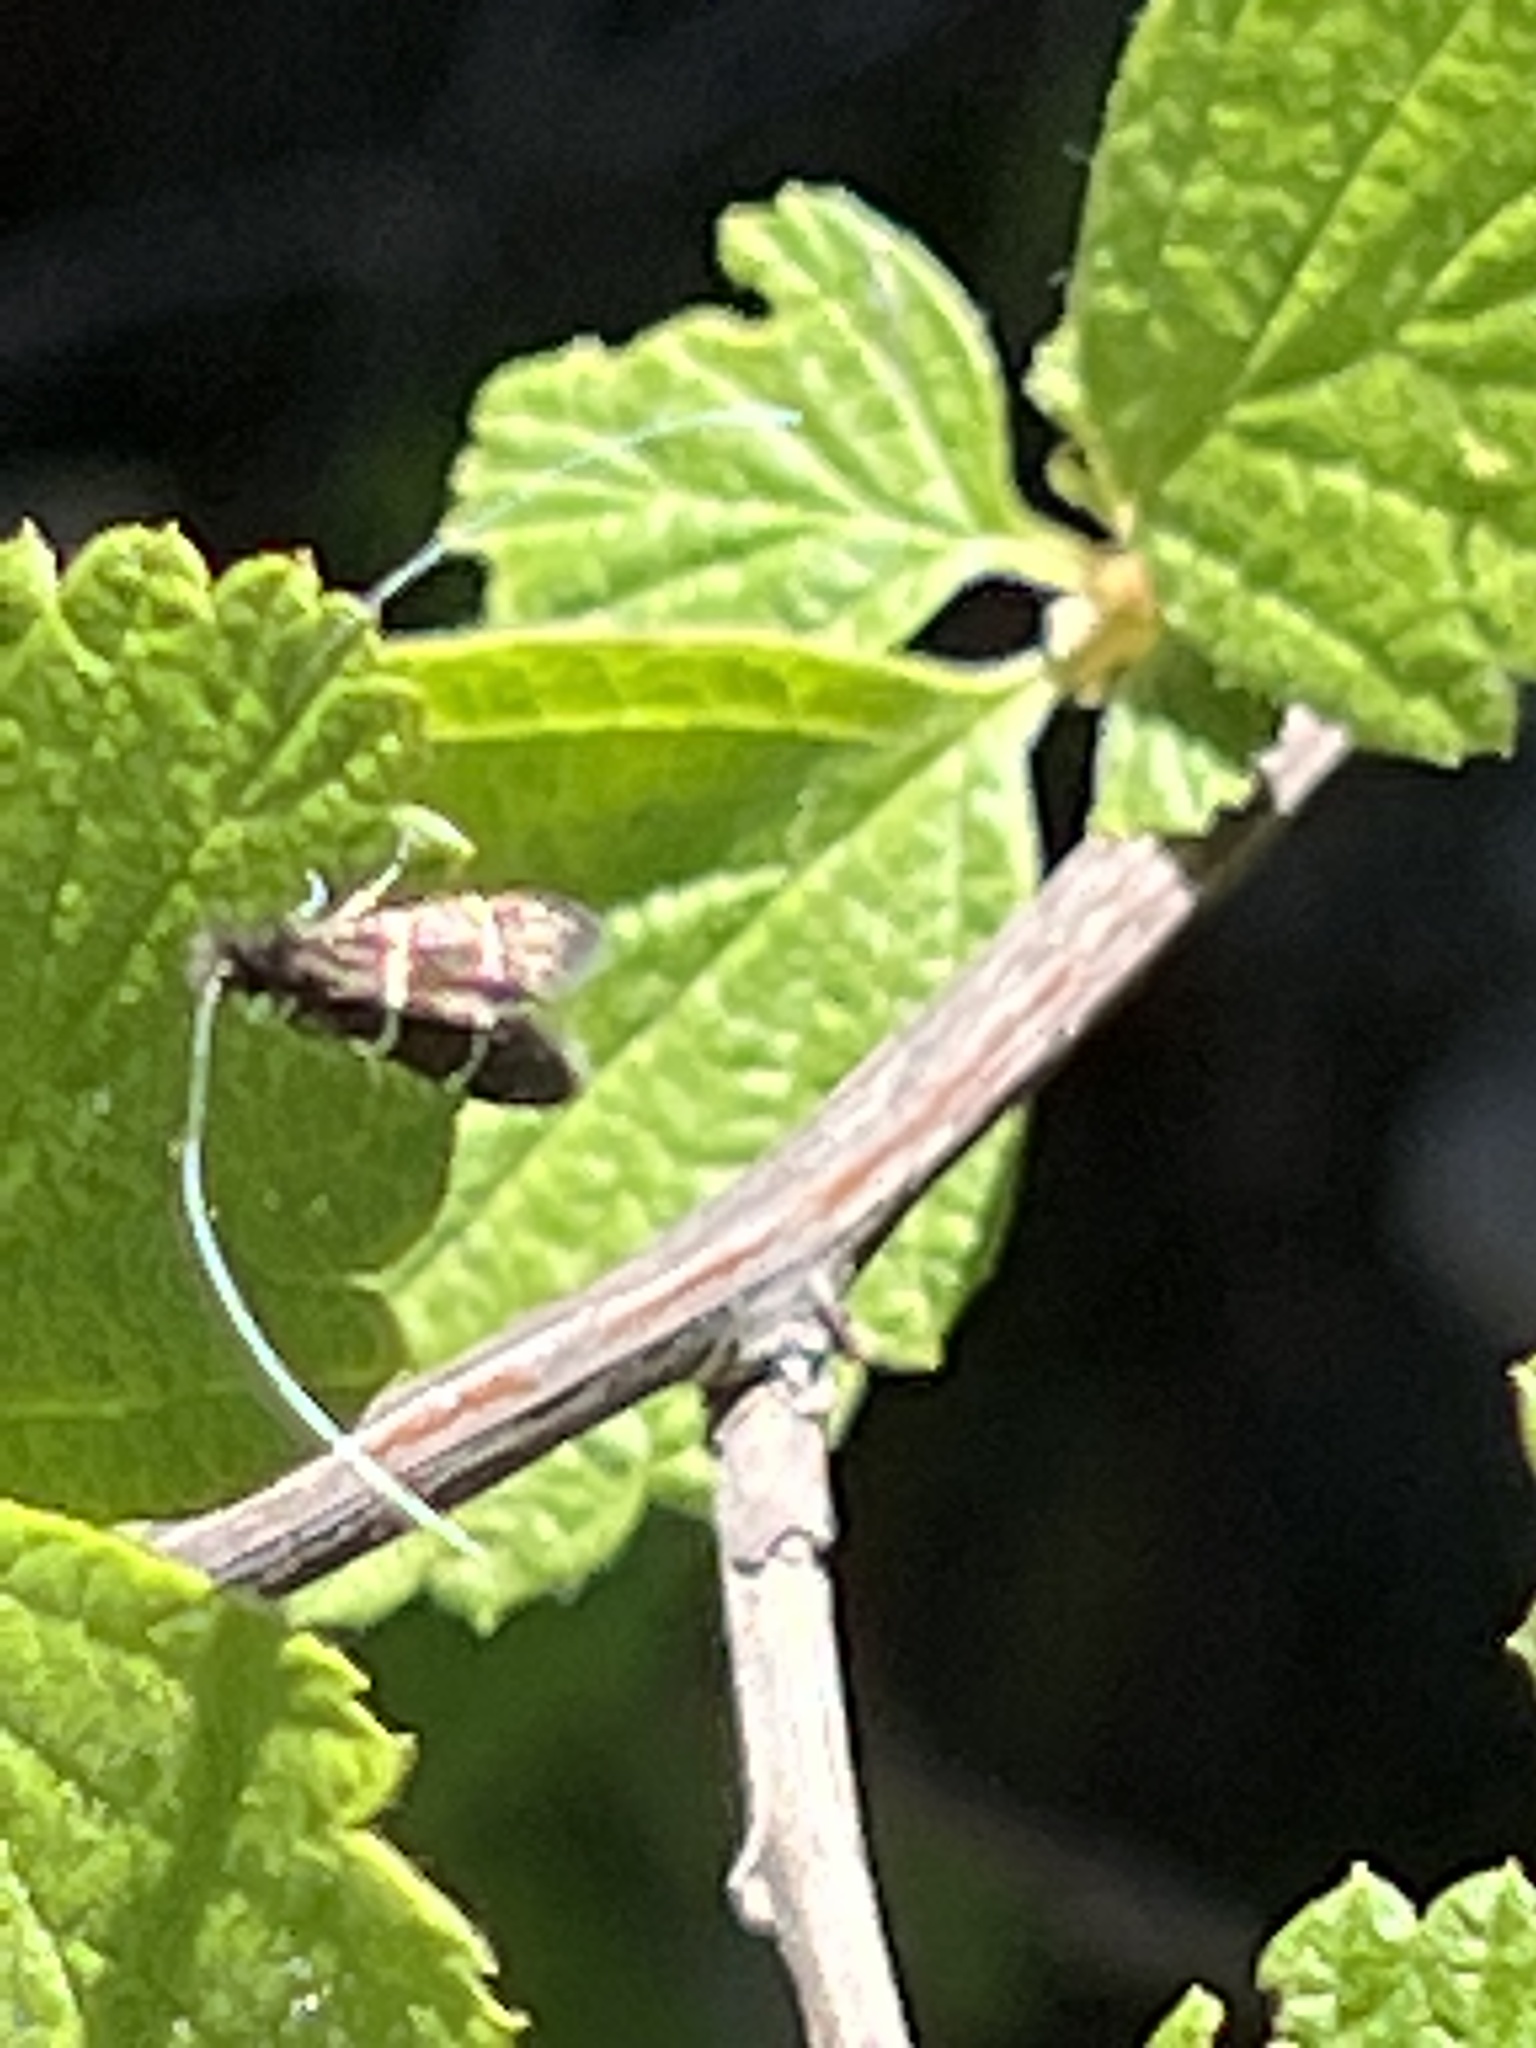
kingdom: Animalia
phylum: Arthropoda
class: Insecta
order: Lepidoptera
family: Adelidae
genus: Adela
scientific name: Adela septentrionella
